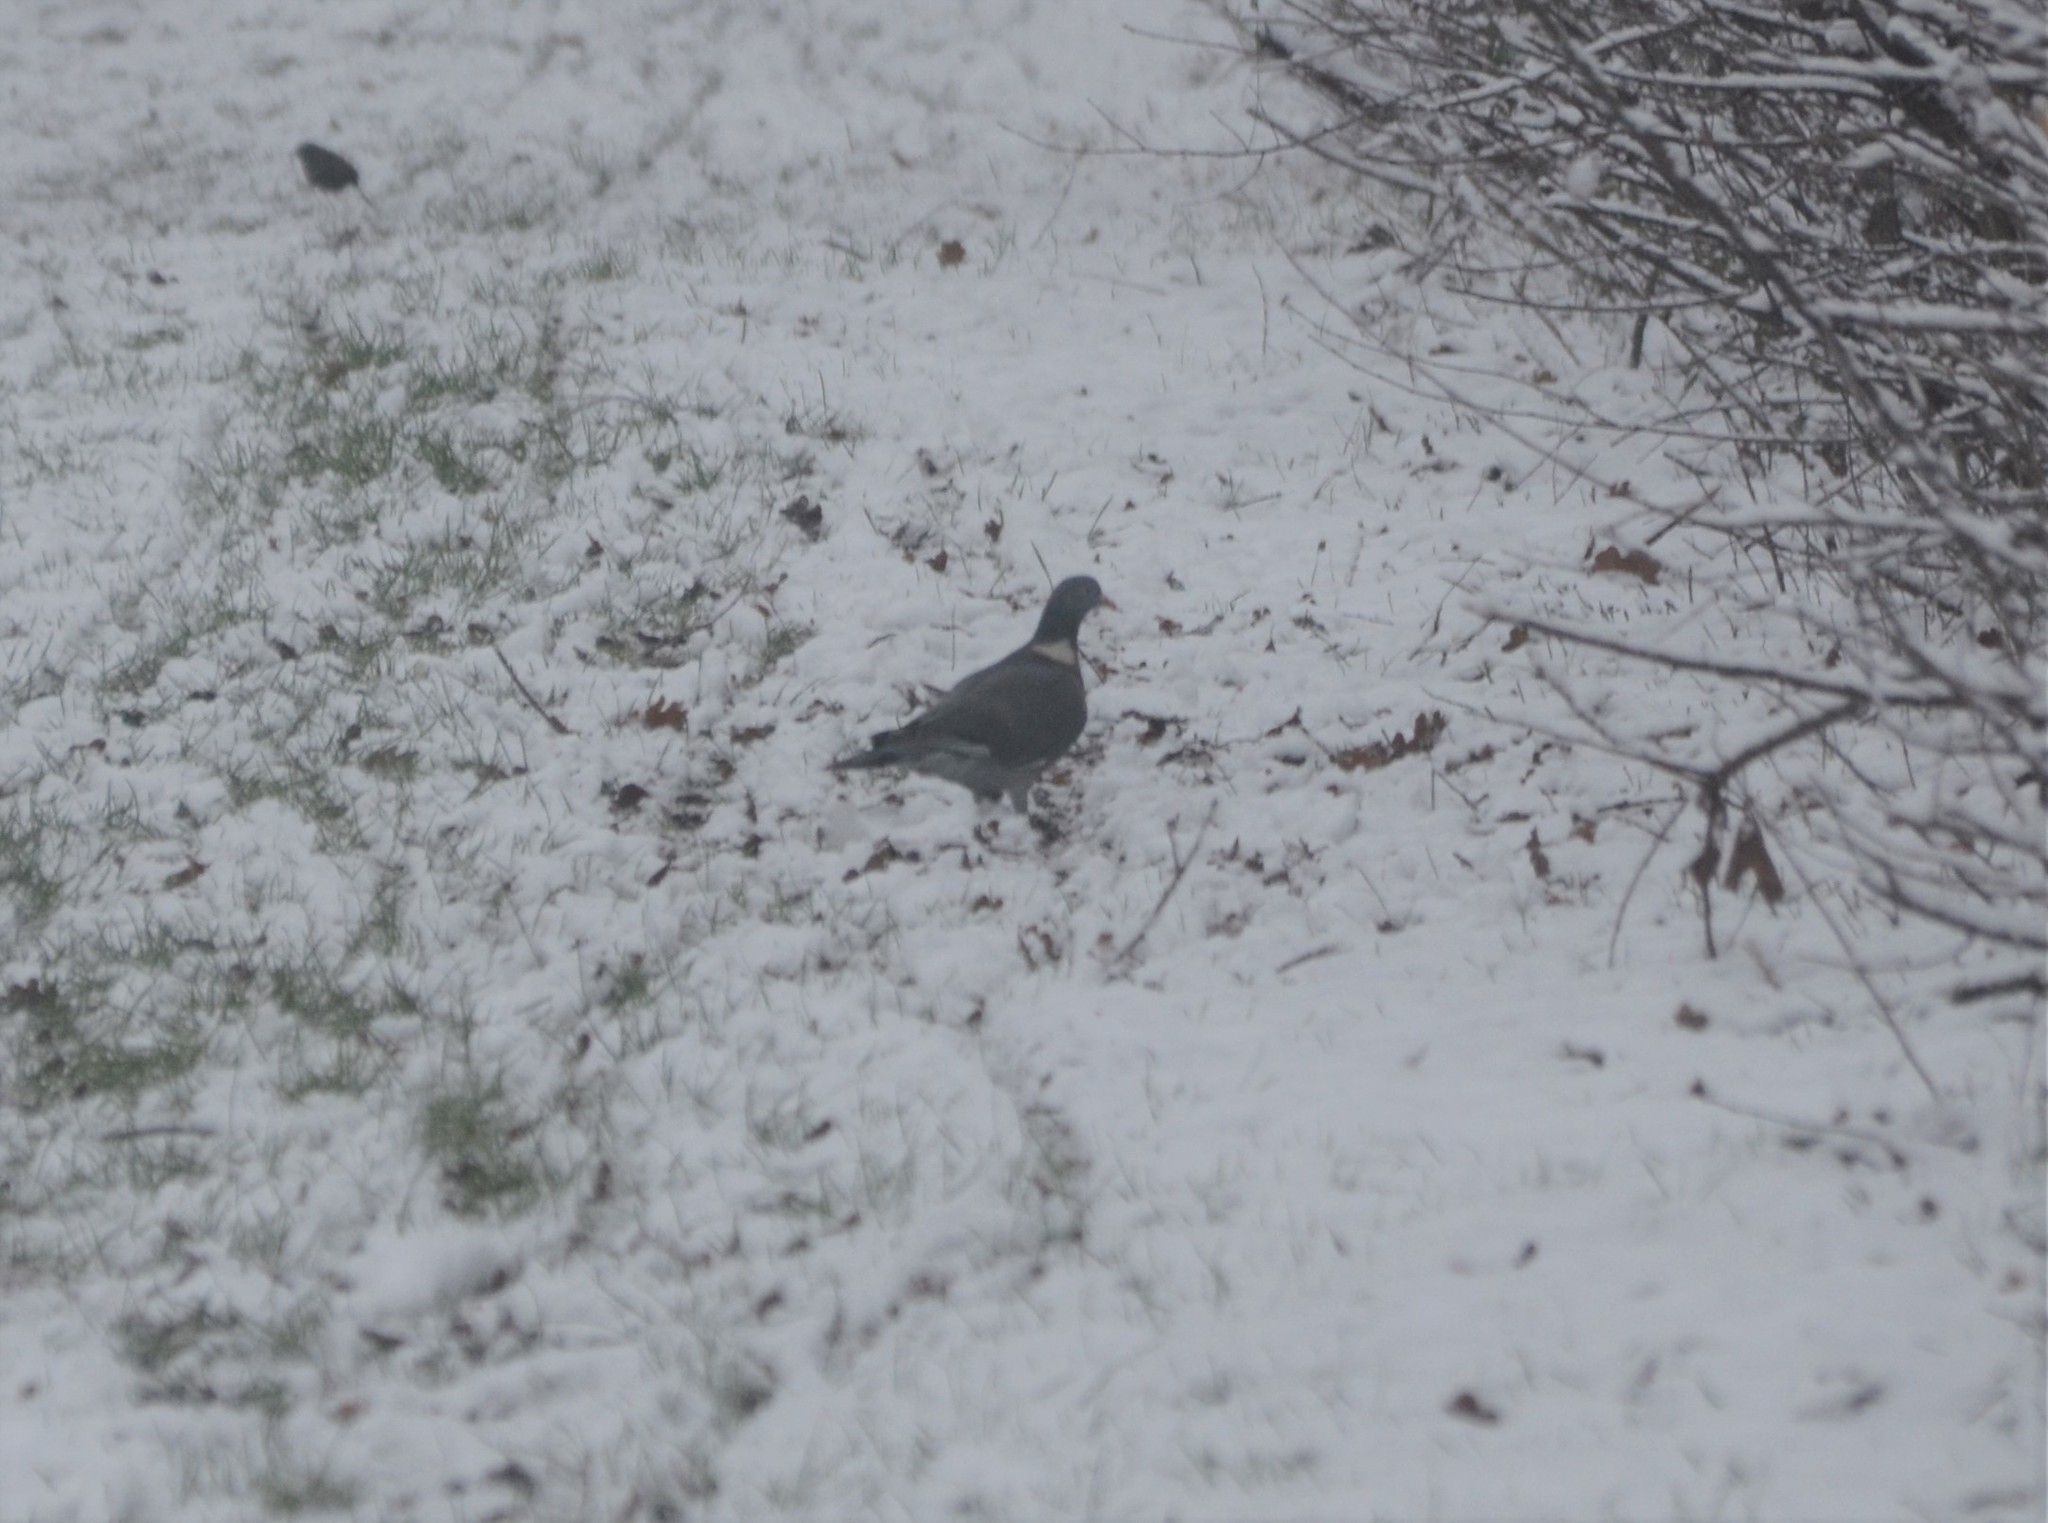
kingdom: Animalia
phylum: Chordata
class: Aves
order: Columbiformes
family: Columbidae
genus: Columba
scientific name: Columba palumbus
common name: Common wood pigeon
